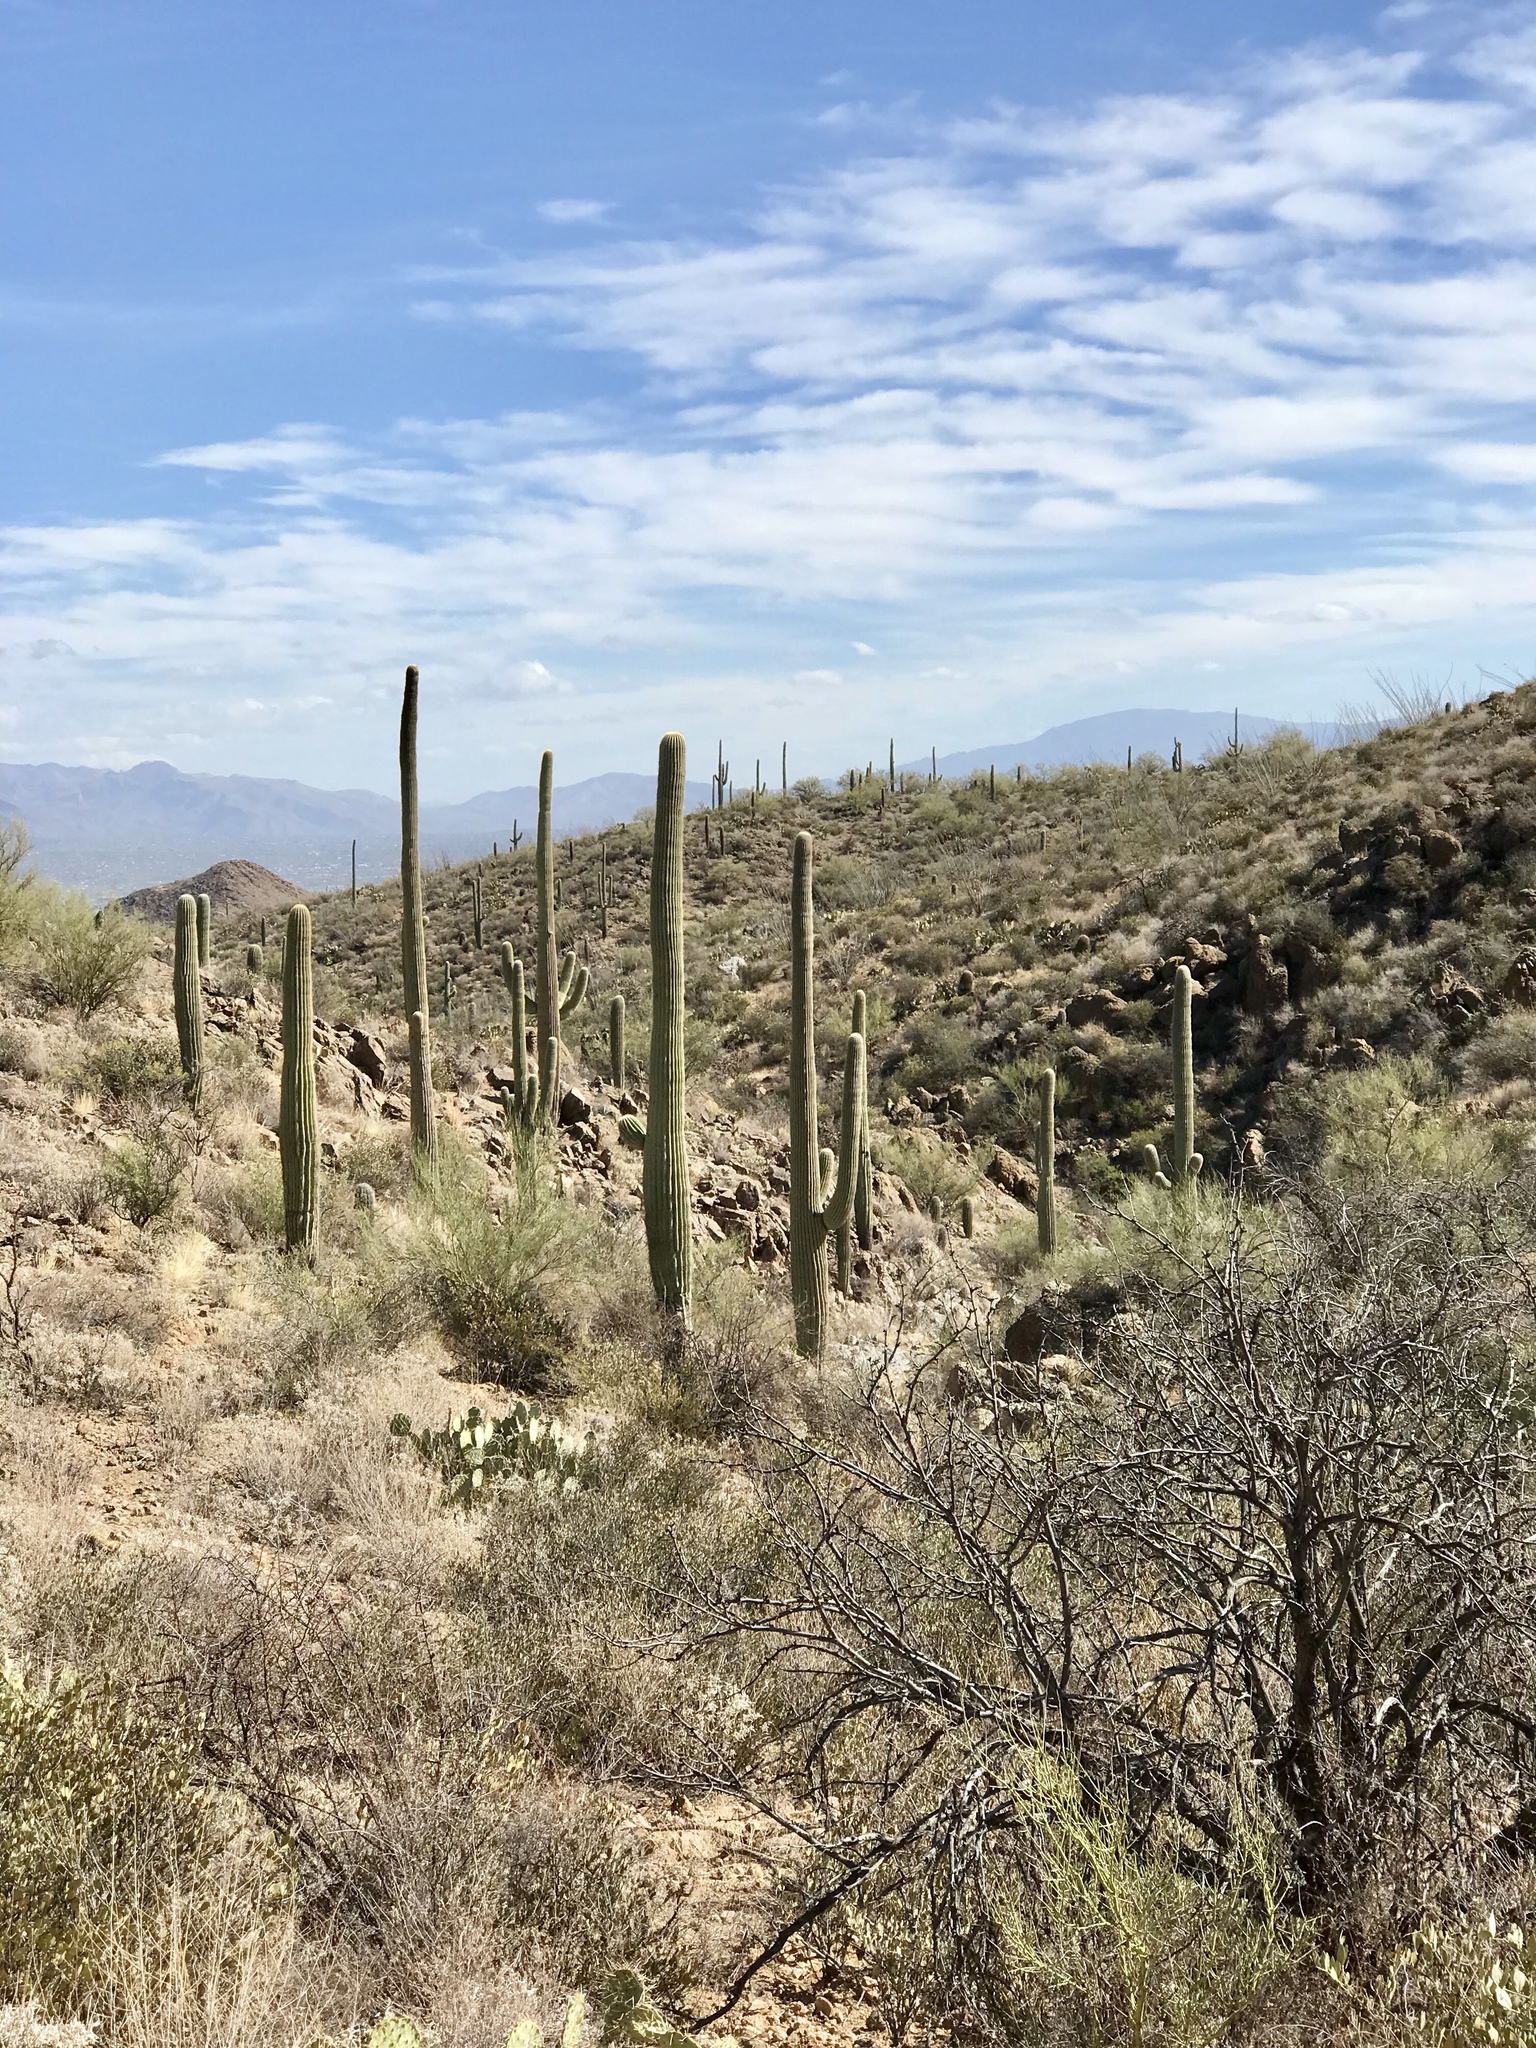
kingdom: Plantae
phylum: Tracheophyta
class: Magnoliopsida
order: Caryophyllales
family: Cactaceae
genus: Carnegiea
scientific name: Carnegiea gigantea
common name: Saguaro
